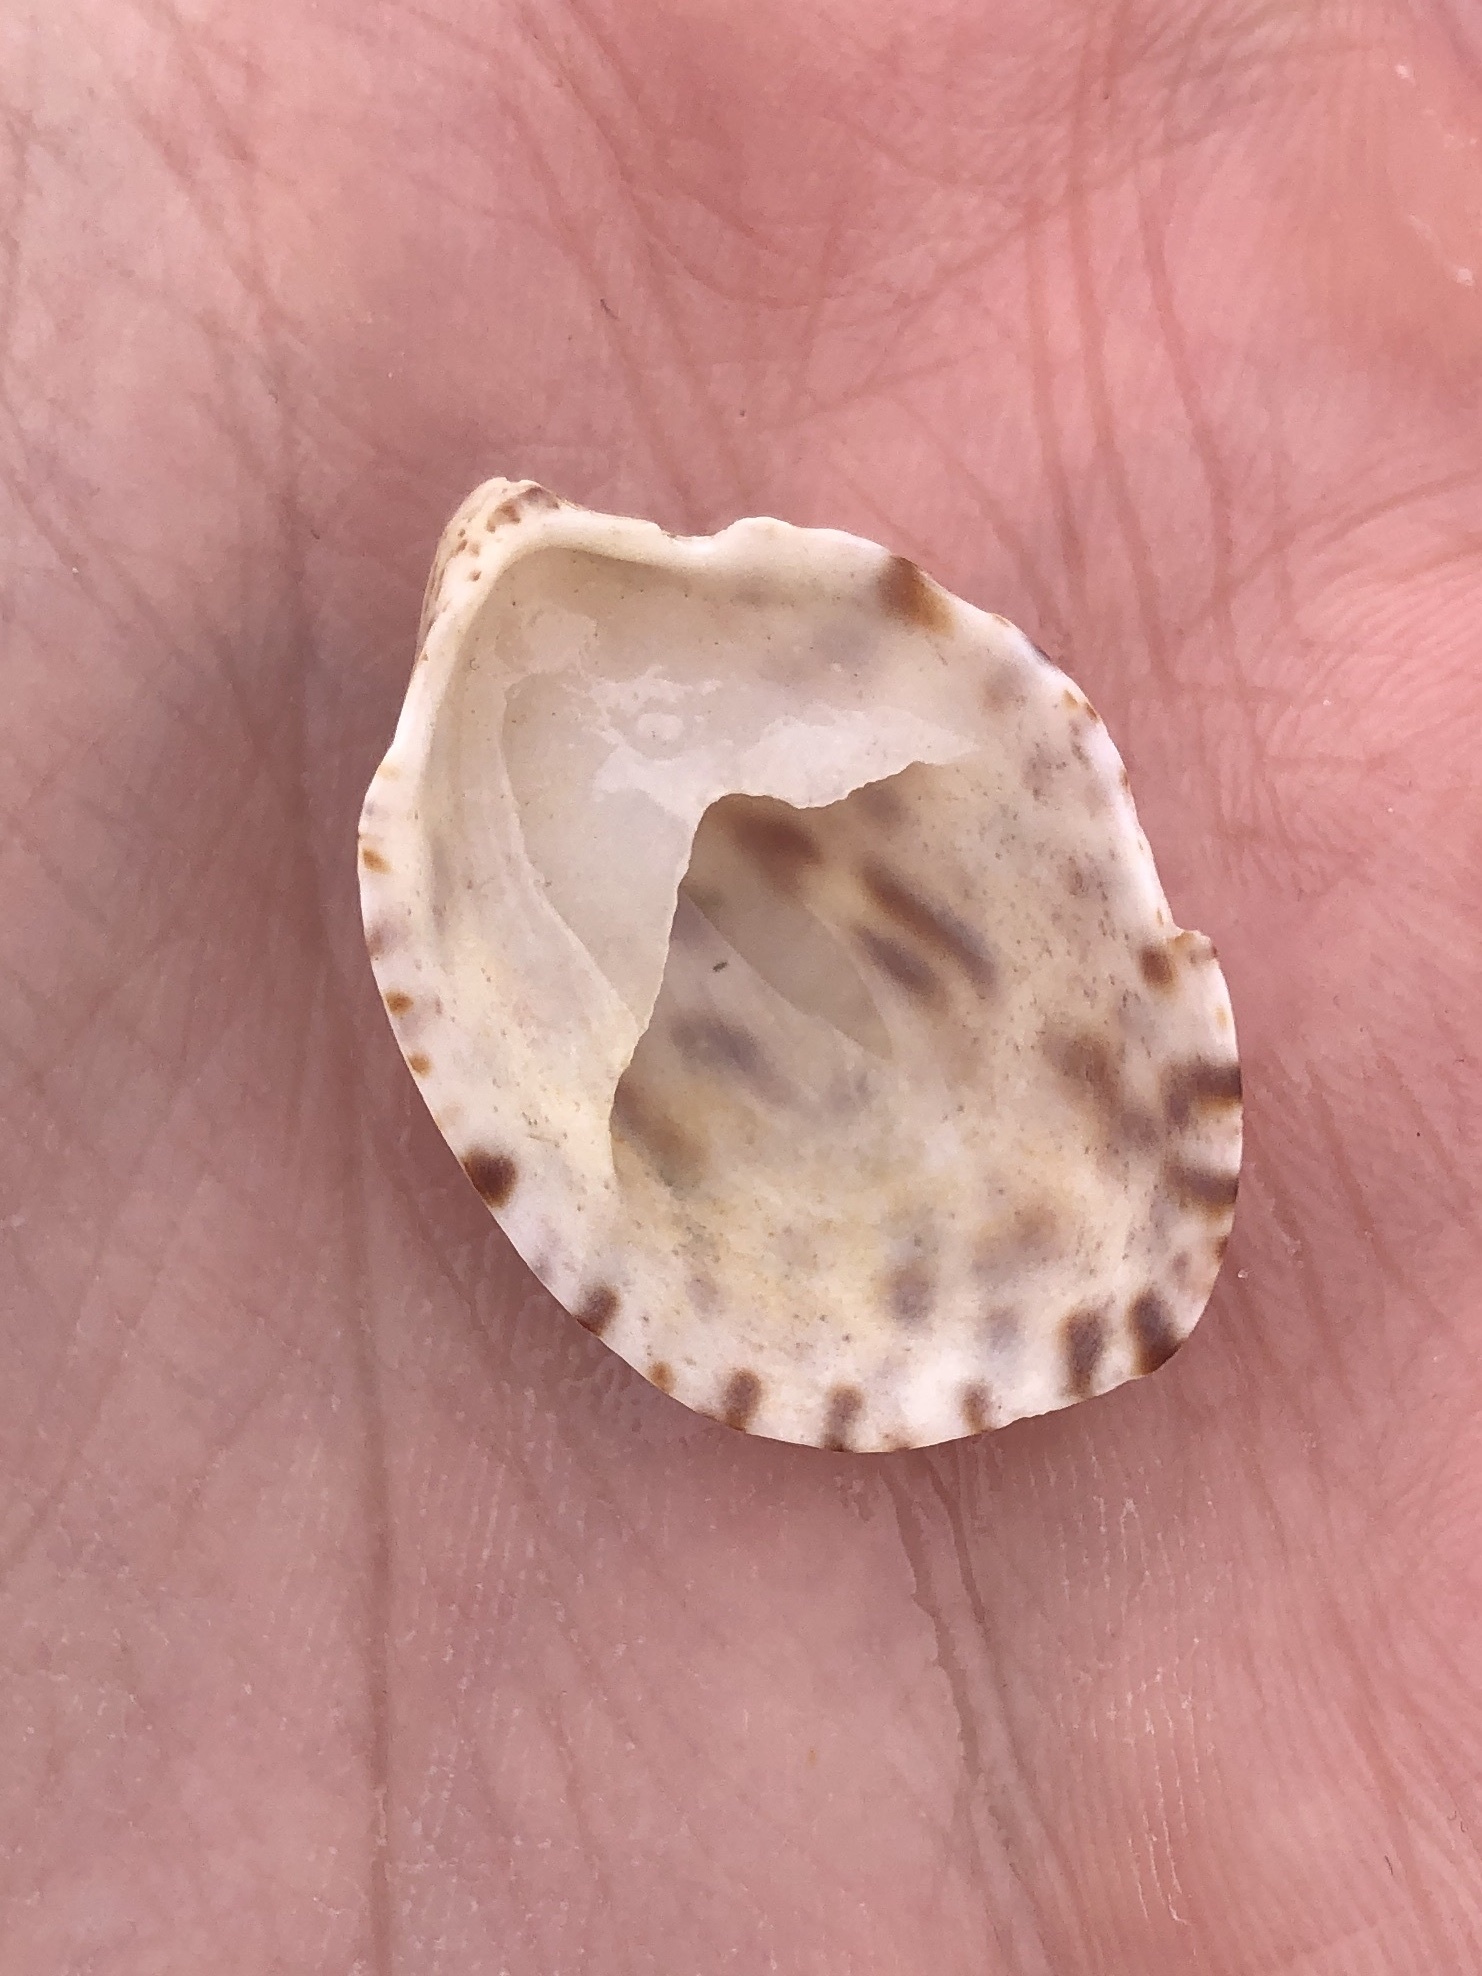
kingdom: Animalia
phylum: Mollusca
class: Gastropoda
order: Littorinimorpha
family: Calyptraeidae
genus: Crepidula
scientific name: Crepidula maculosa
